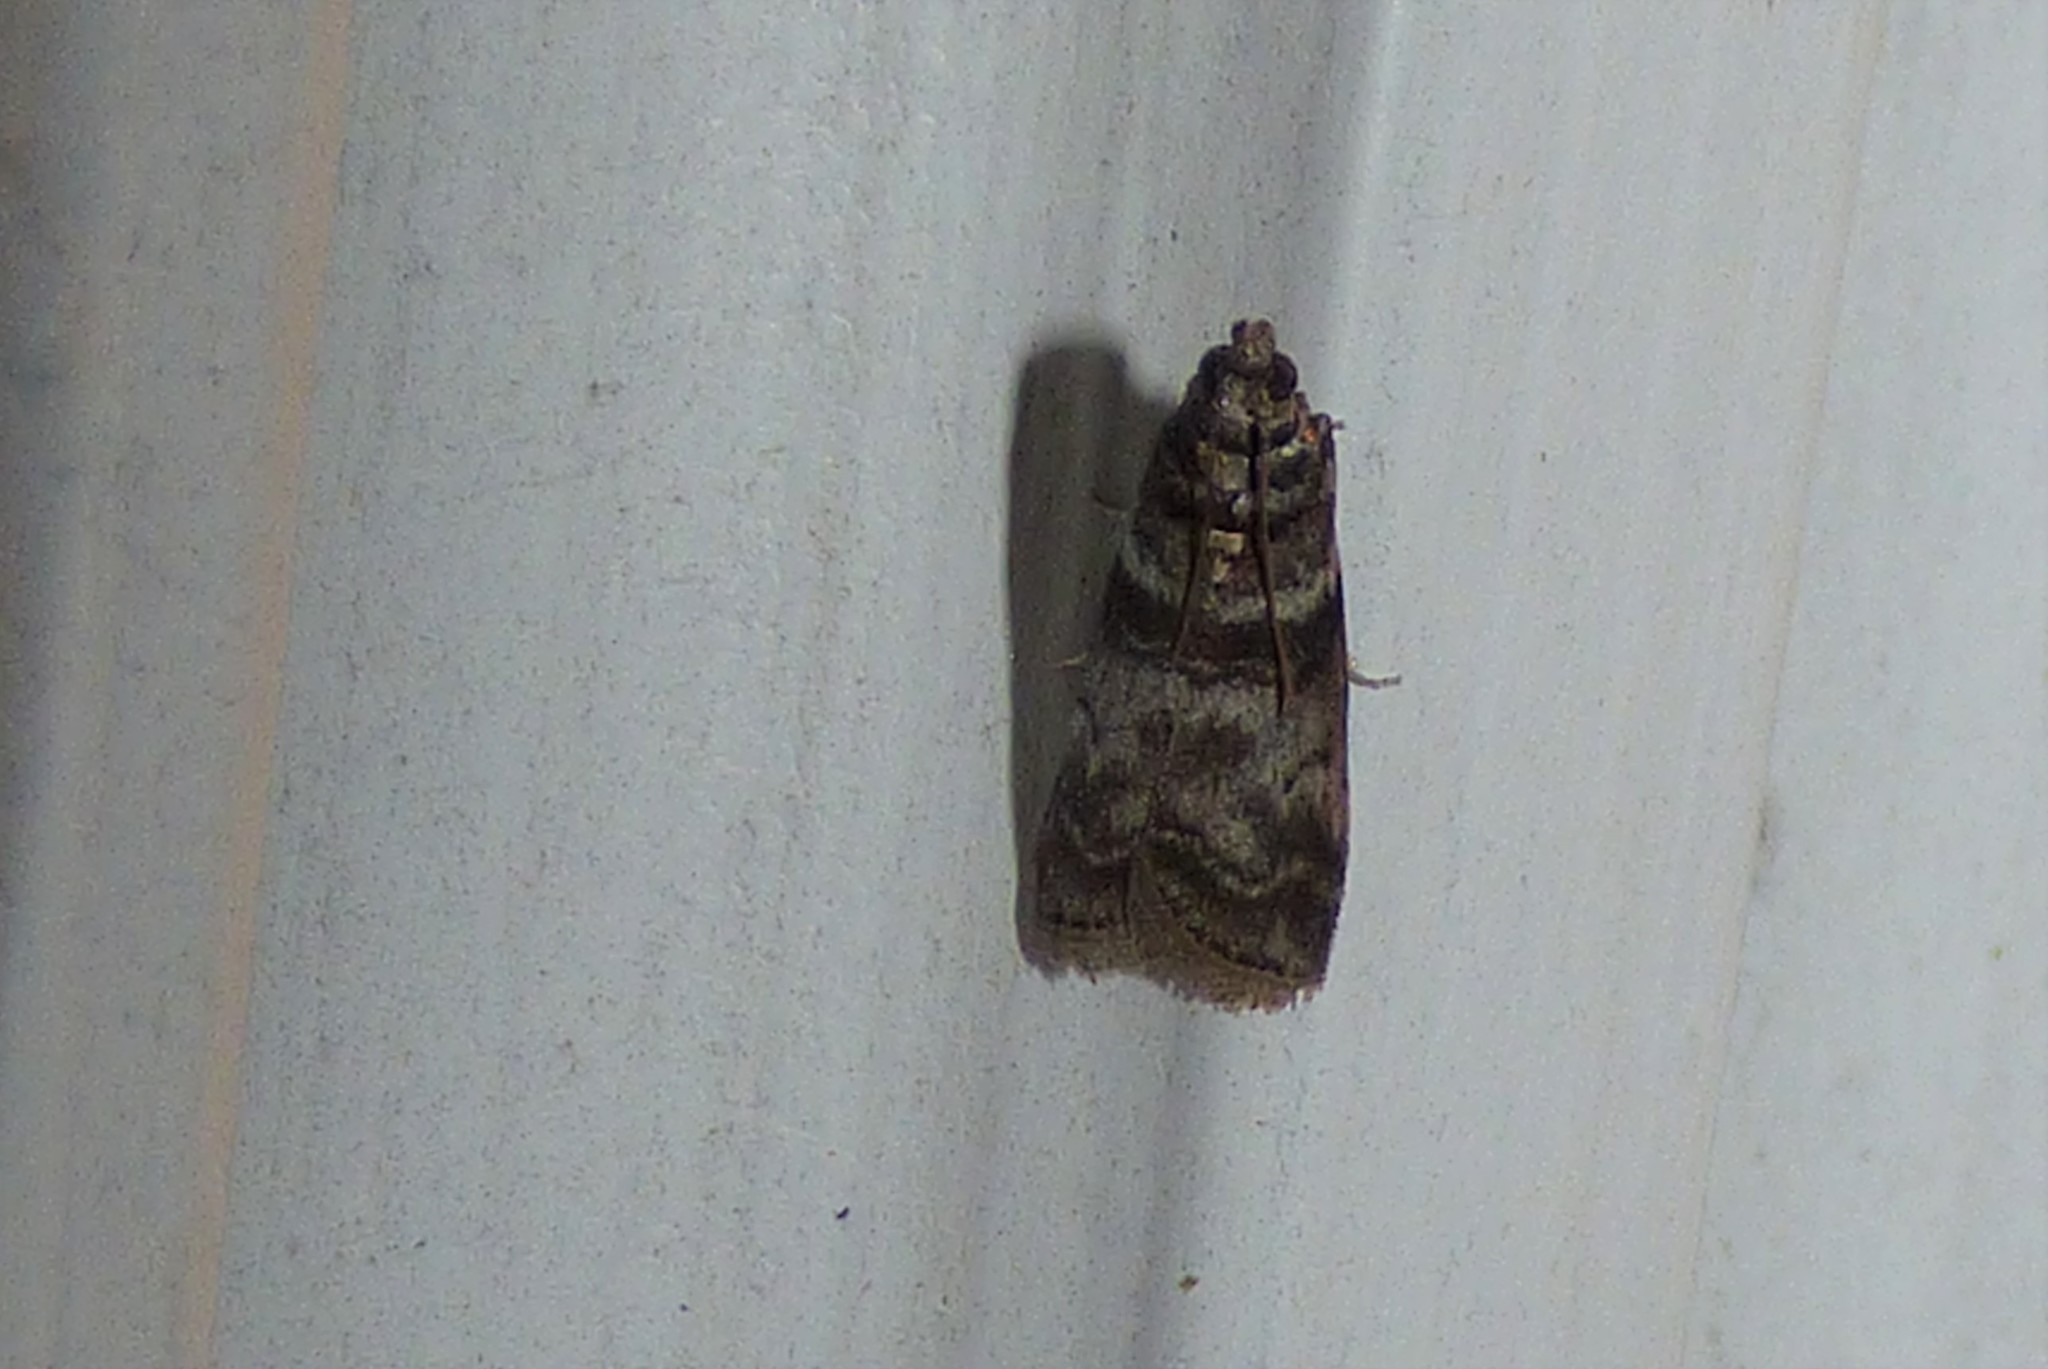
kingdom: Animalia
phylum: Arthropoda
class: Insecta
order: Lepidoptera
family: Pyralidae
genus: Sciota
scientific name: Sciota uvinella
